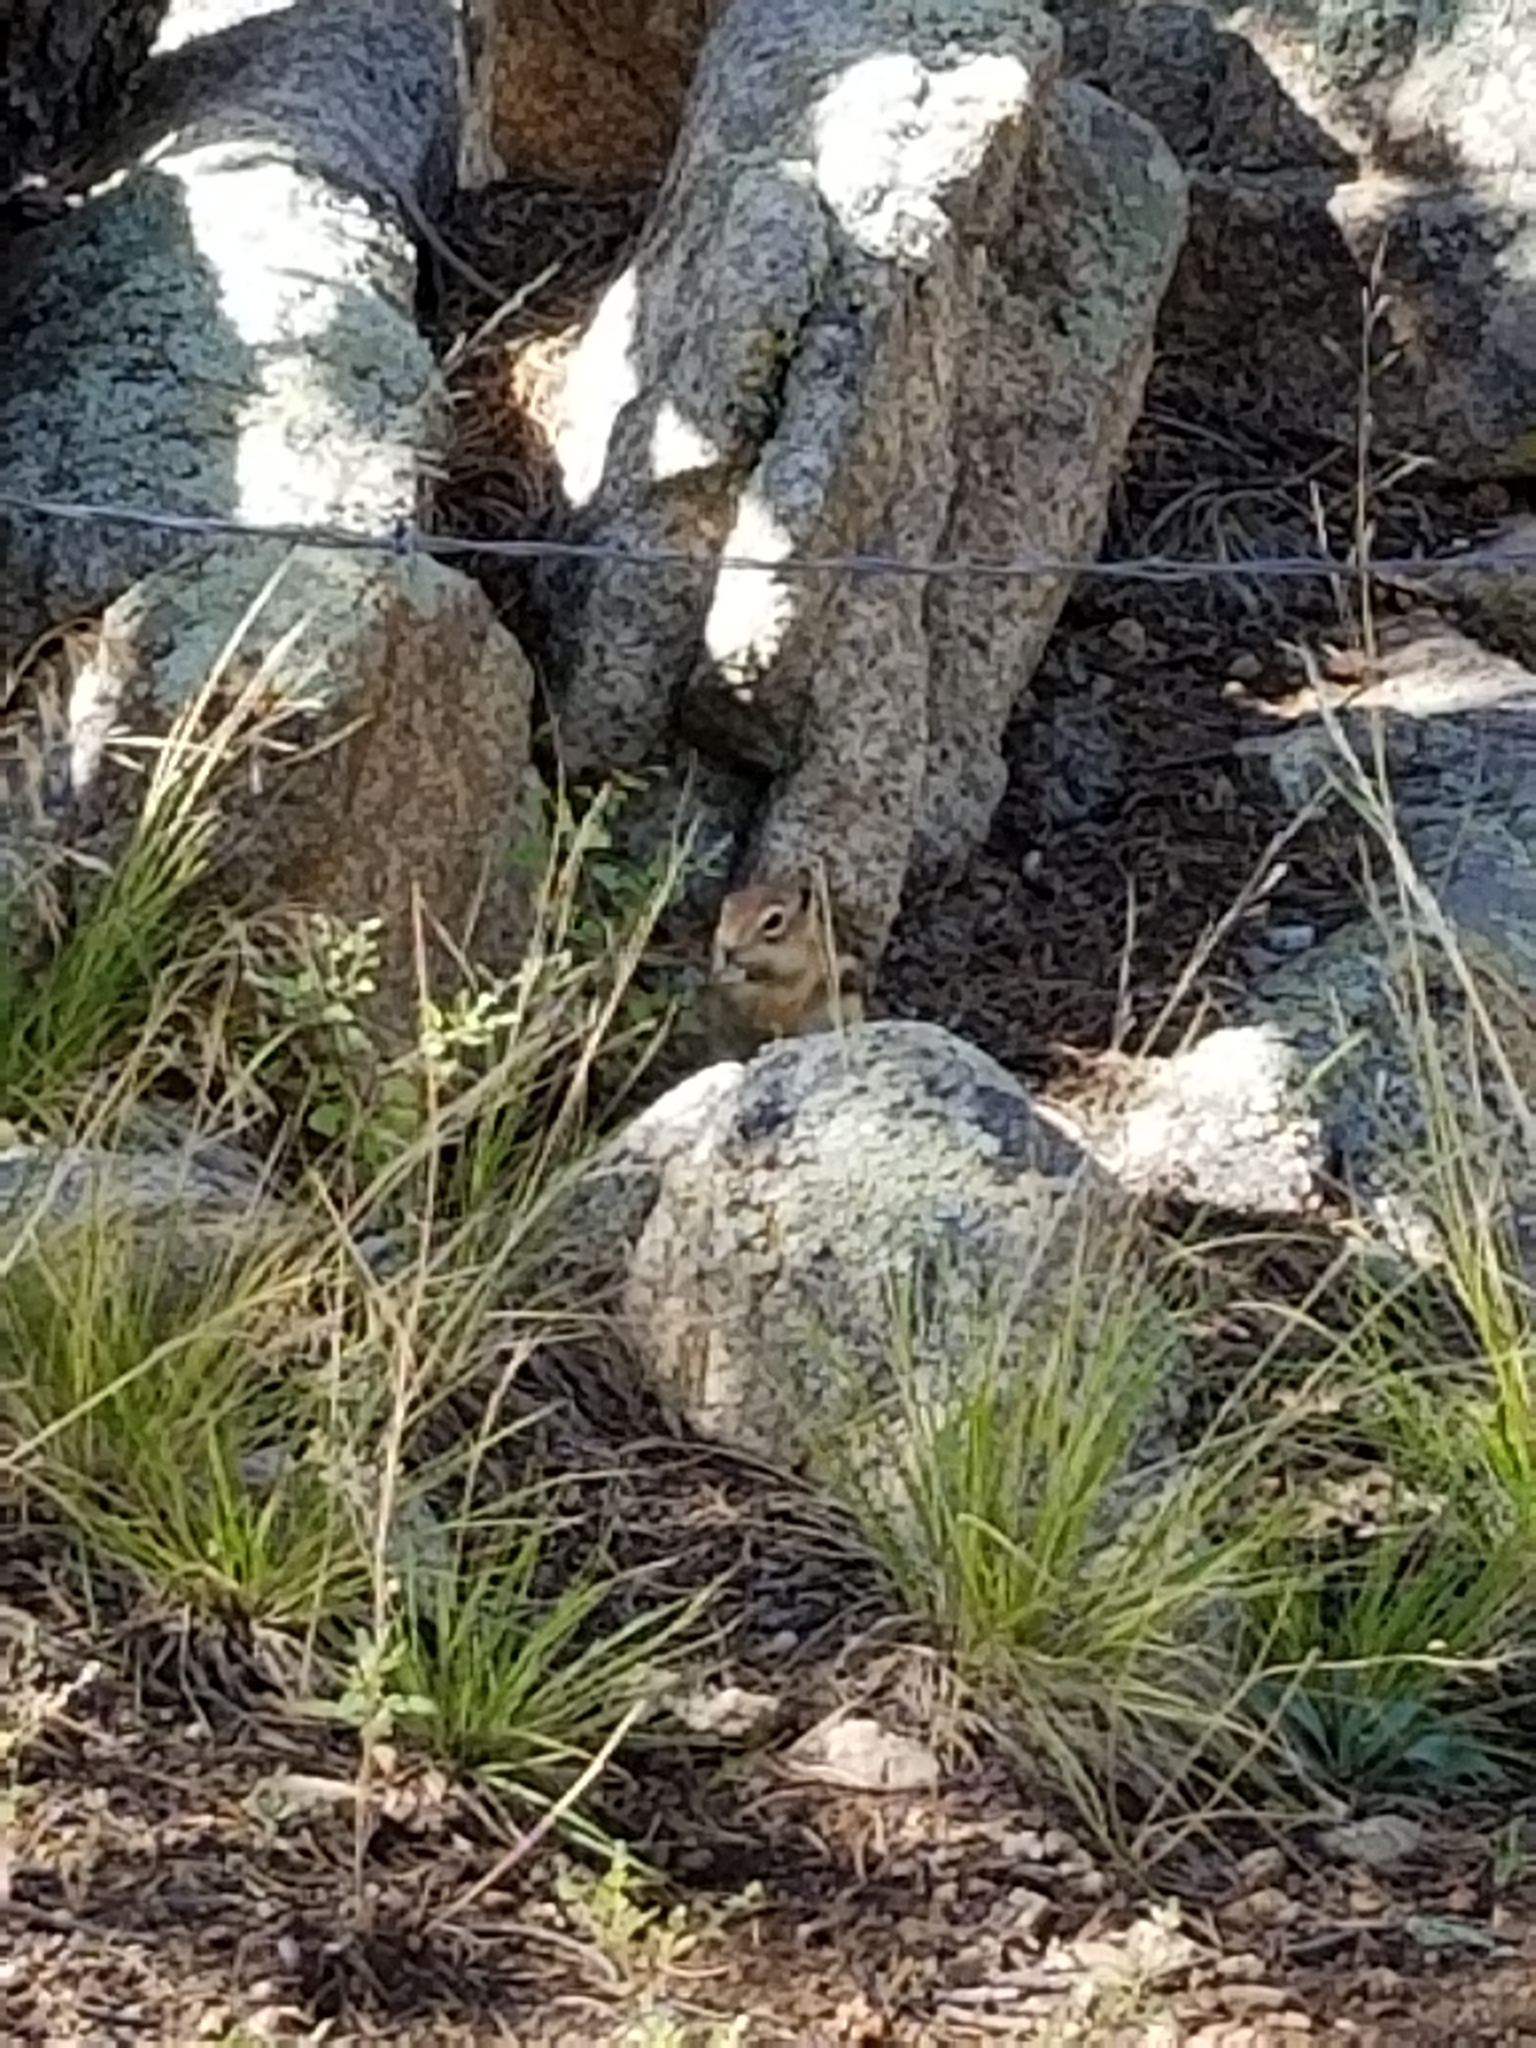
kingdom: Animalia
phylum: Chordata
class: Mammalia
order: Rodentia
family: Sciuridae
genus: Callospermophilus
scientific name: Callospermophilus lateralis
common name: Golden-mantled ground squirrel
